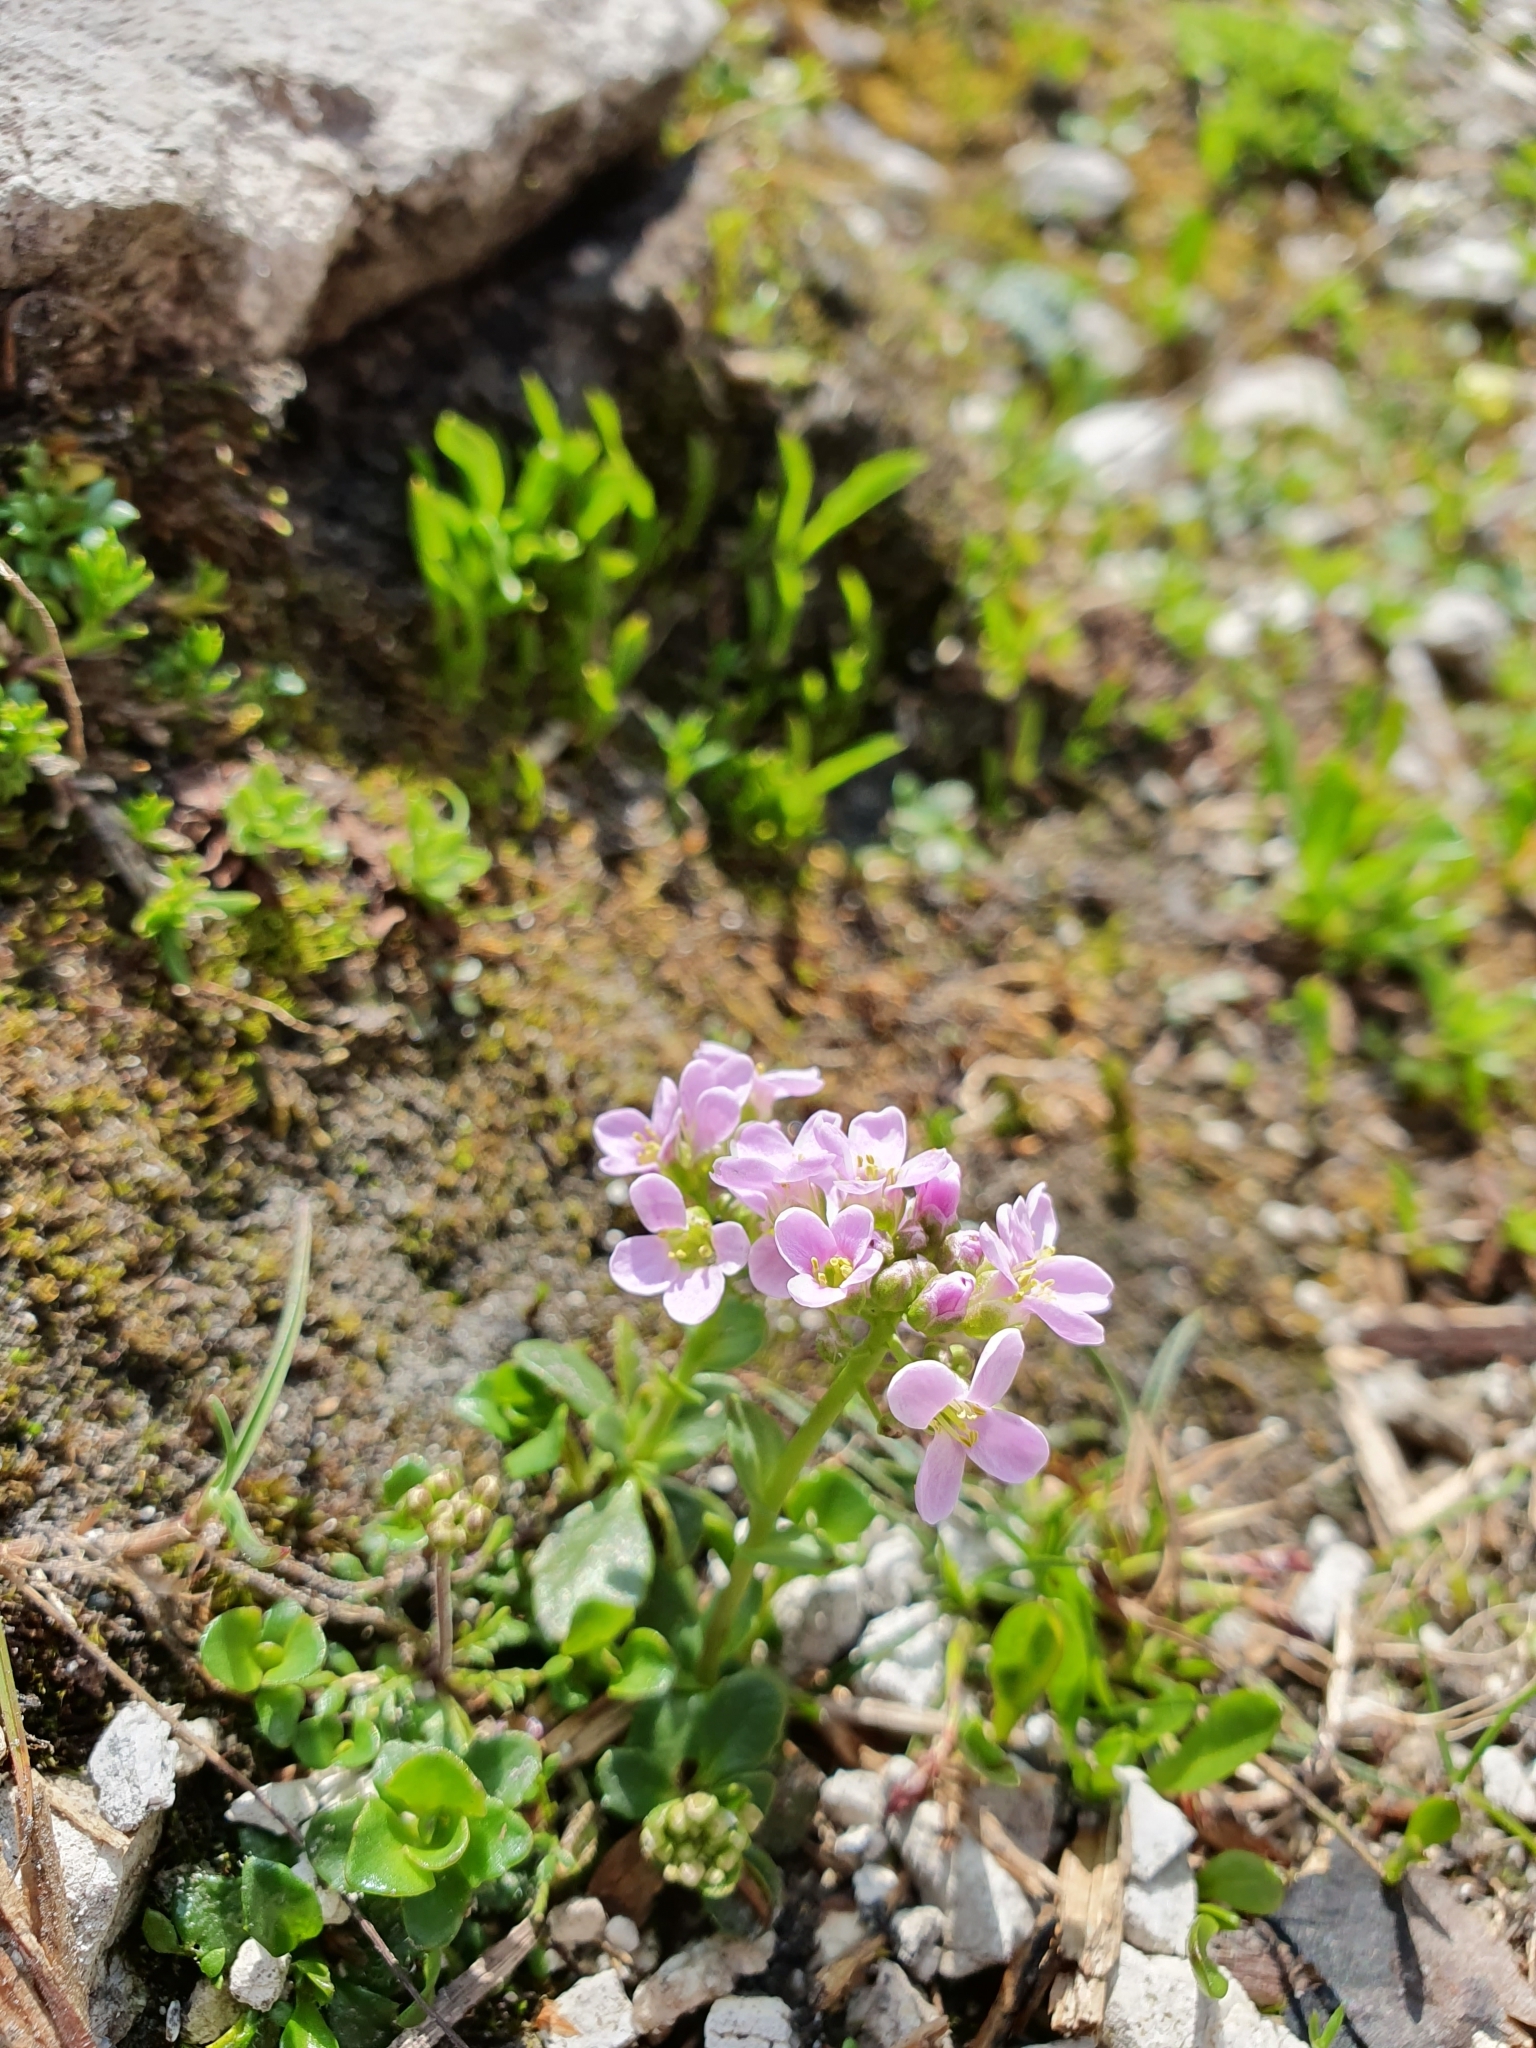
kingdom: Plantae
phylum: Tracheophyta
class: Magnoliopsida
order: Brassicales
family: Brassicaceae
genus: Noccaea
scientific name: Noccaea rotundifolia
